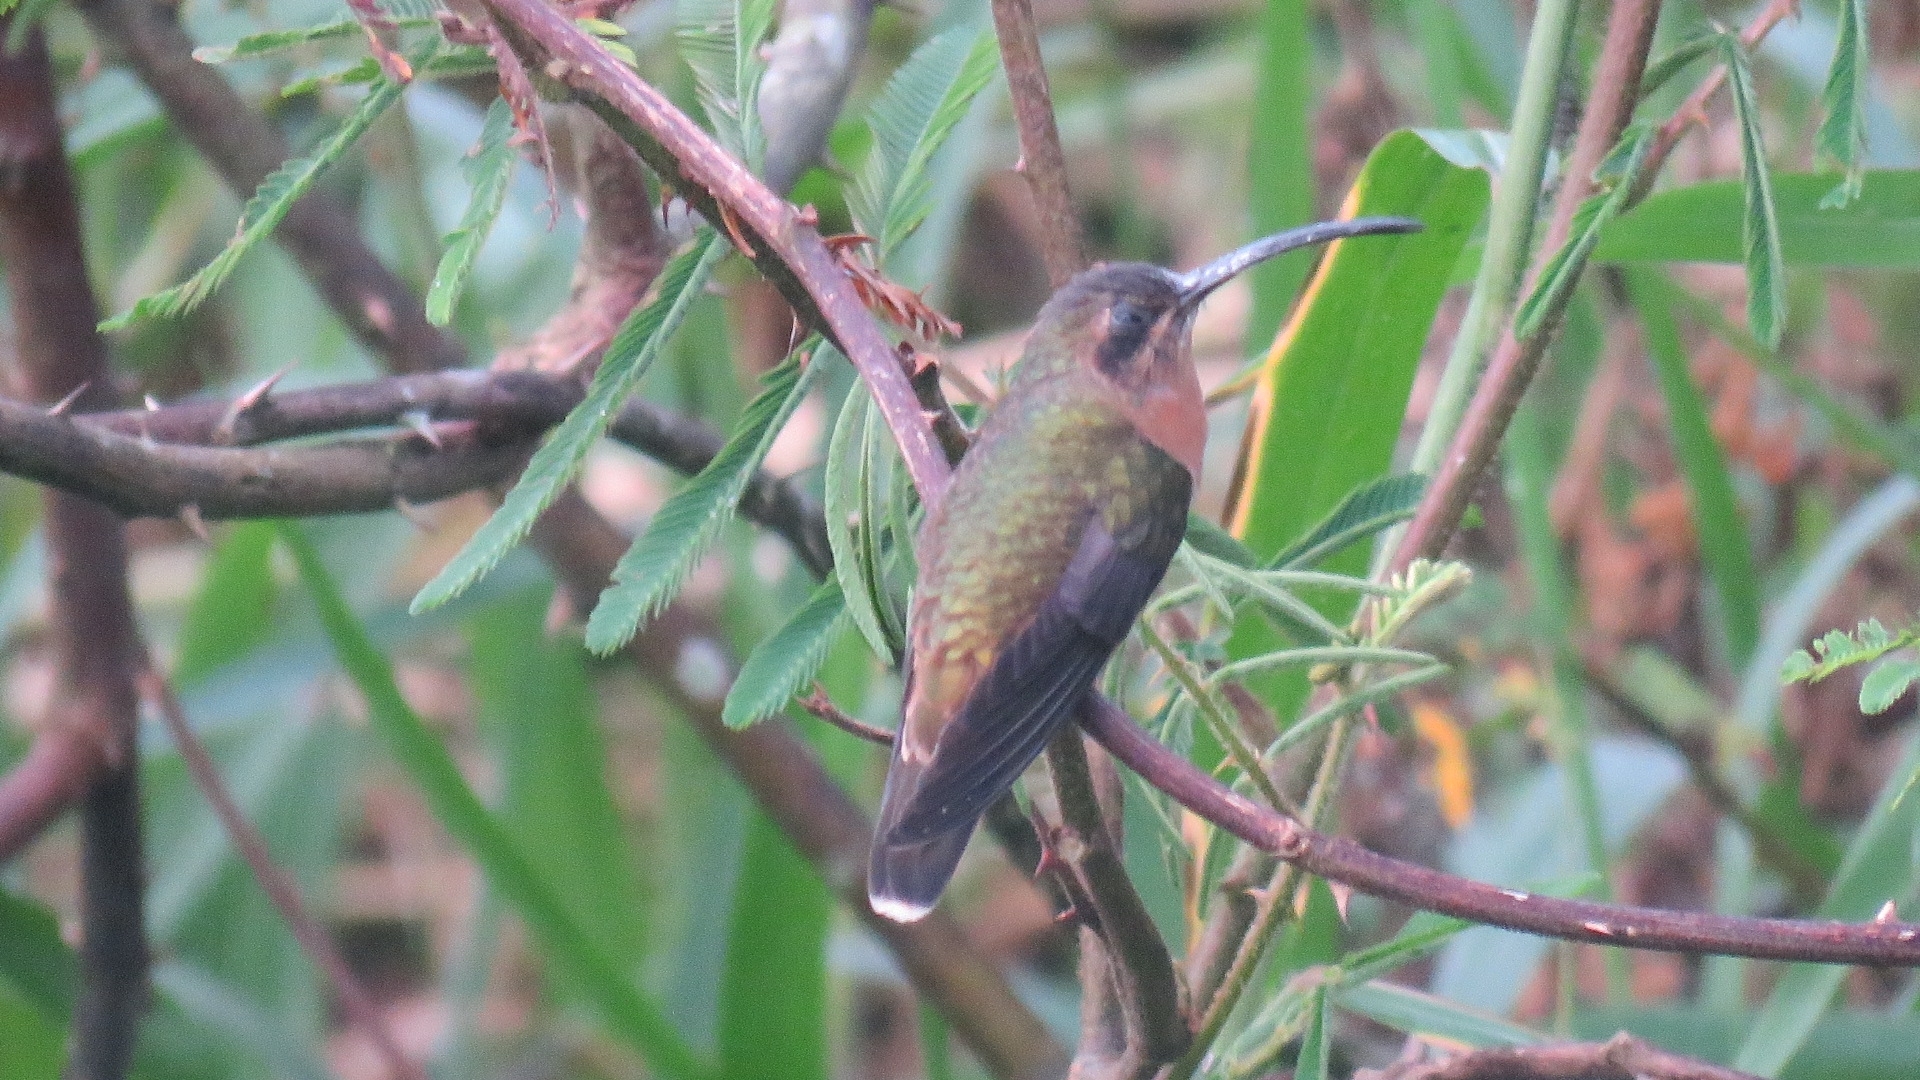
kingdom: Animalia
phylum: Chordata
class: Aves
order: Apodiformes
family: Trochilidae
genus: Glaucis
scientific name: Glaucis aeneus
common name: Bronzy hermit
